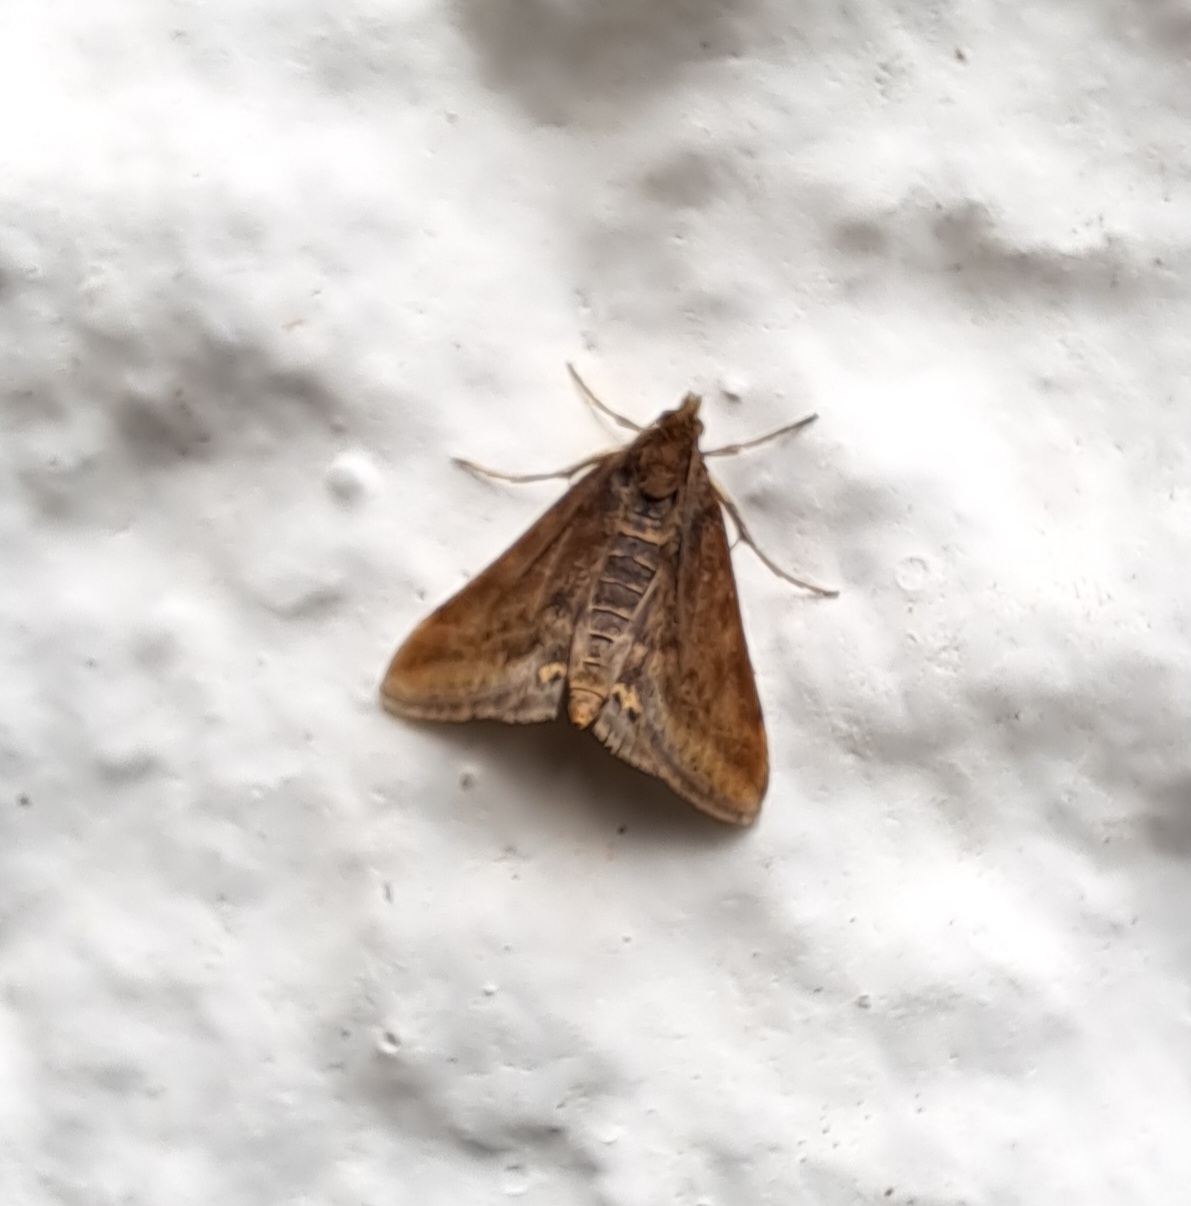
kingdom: Animalia
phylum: Arthropoda
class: Insecta
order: Lepidoptera
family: Crambidae
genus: Pyrausta
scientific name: Pyrausta despicata
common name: Straw-barred pearl
